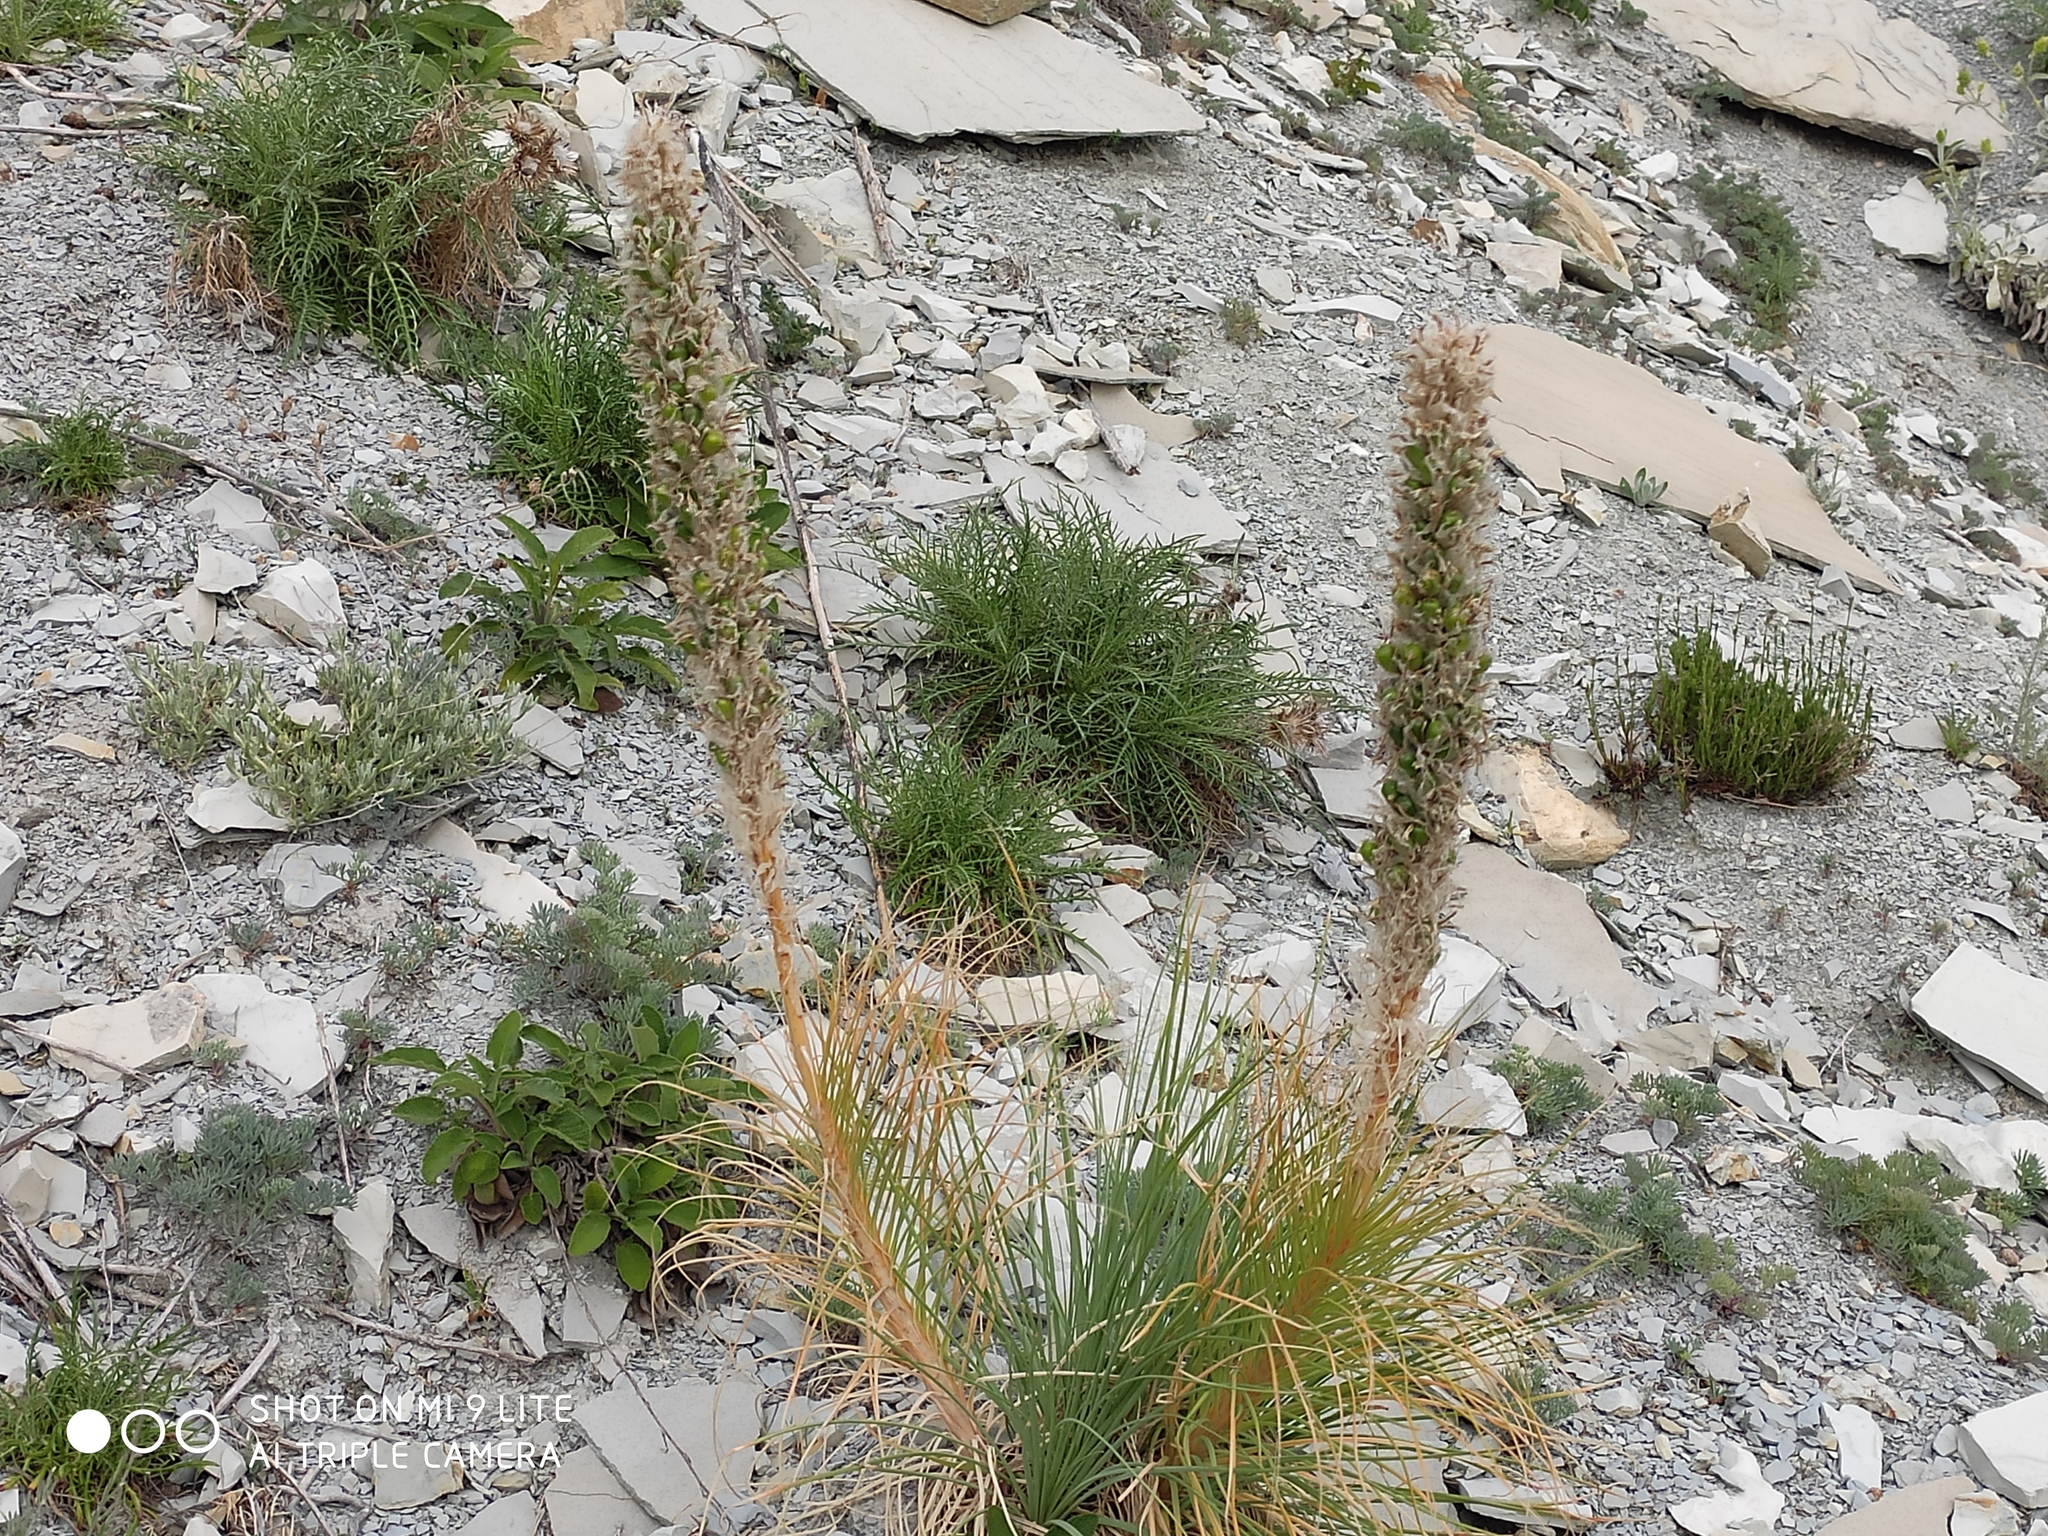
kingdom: Plantae
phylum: Tracheophyta
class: Liliopsida
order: Asparagales
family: Asphodelaceae
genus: Asphodeline
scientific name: Asphodeline taurica
